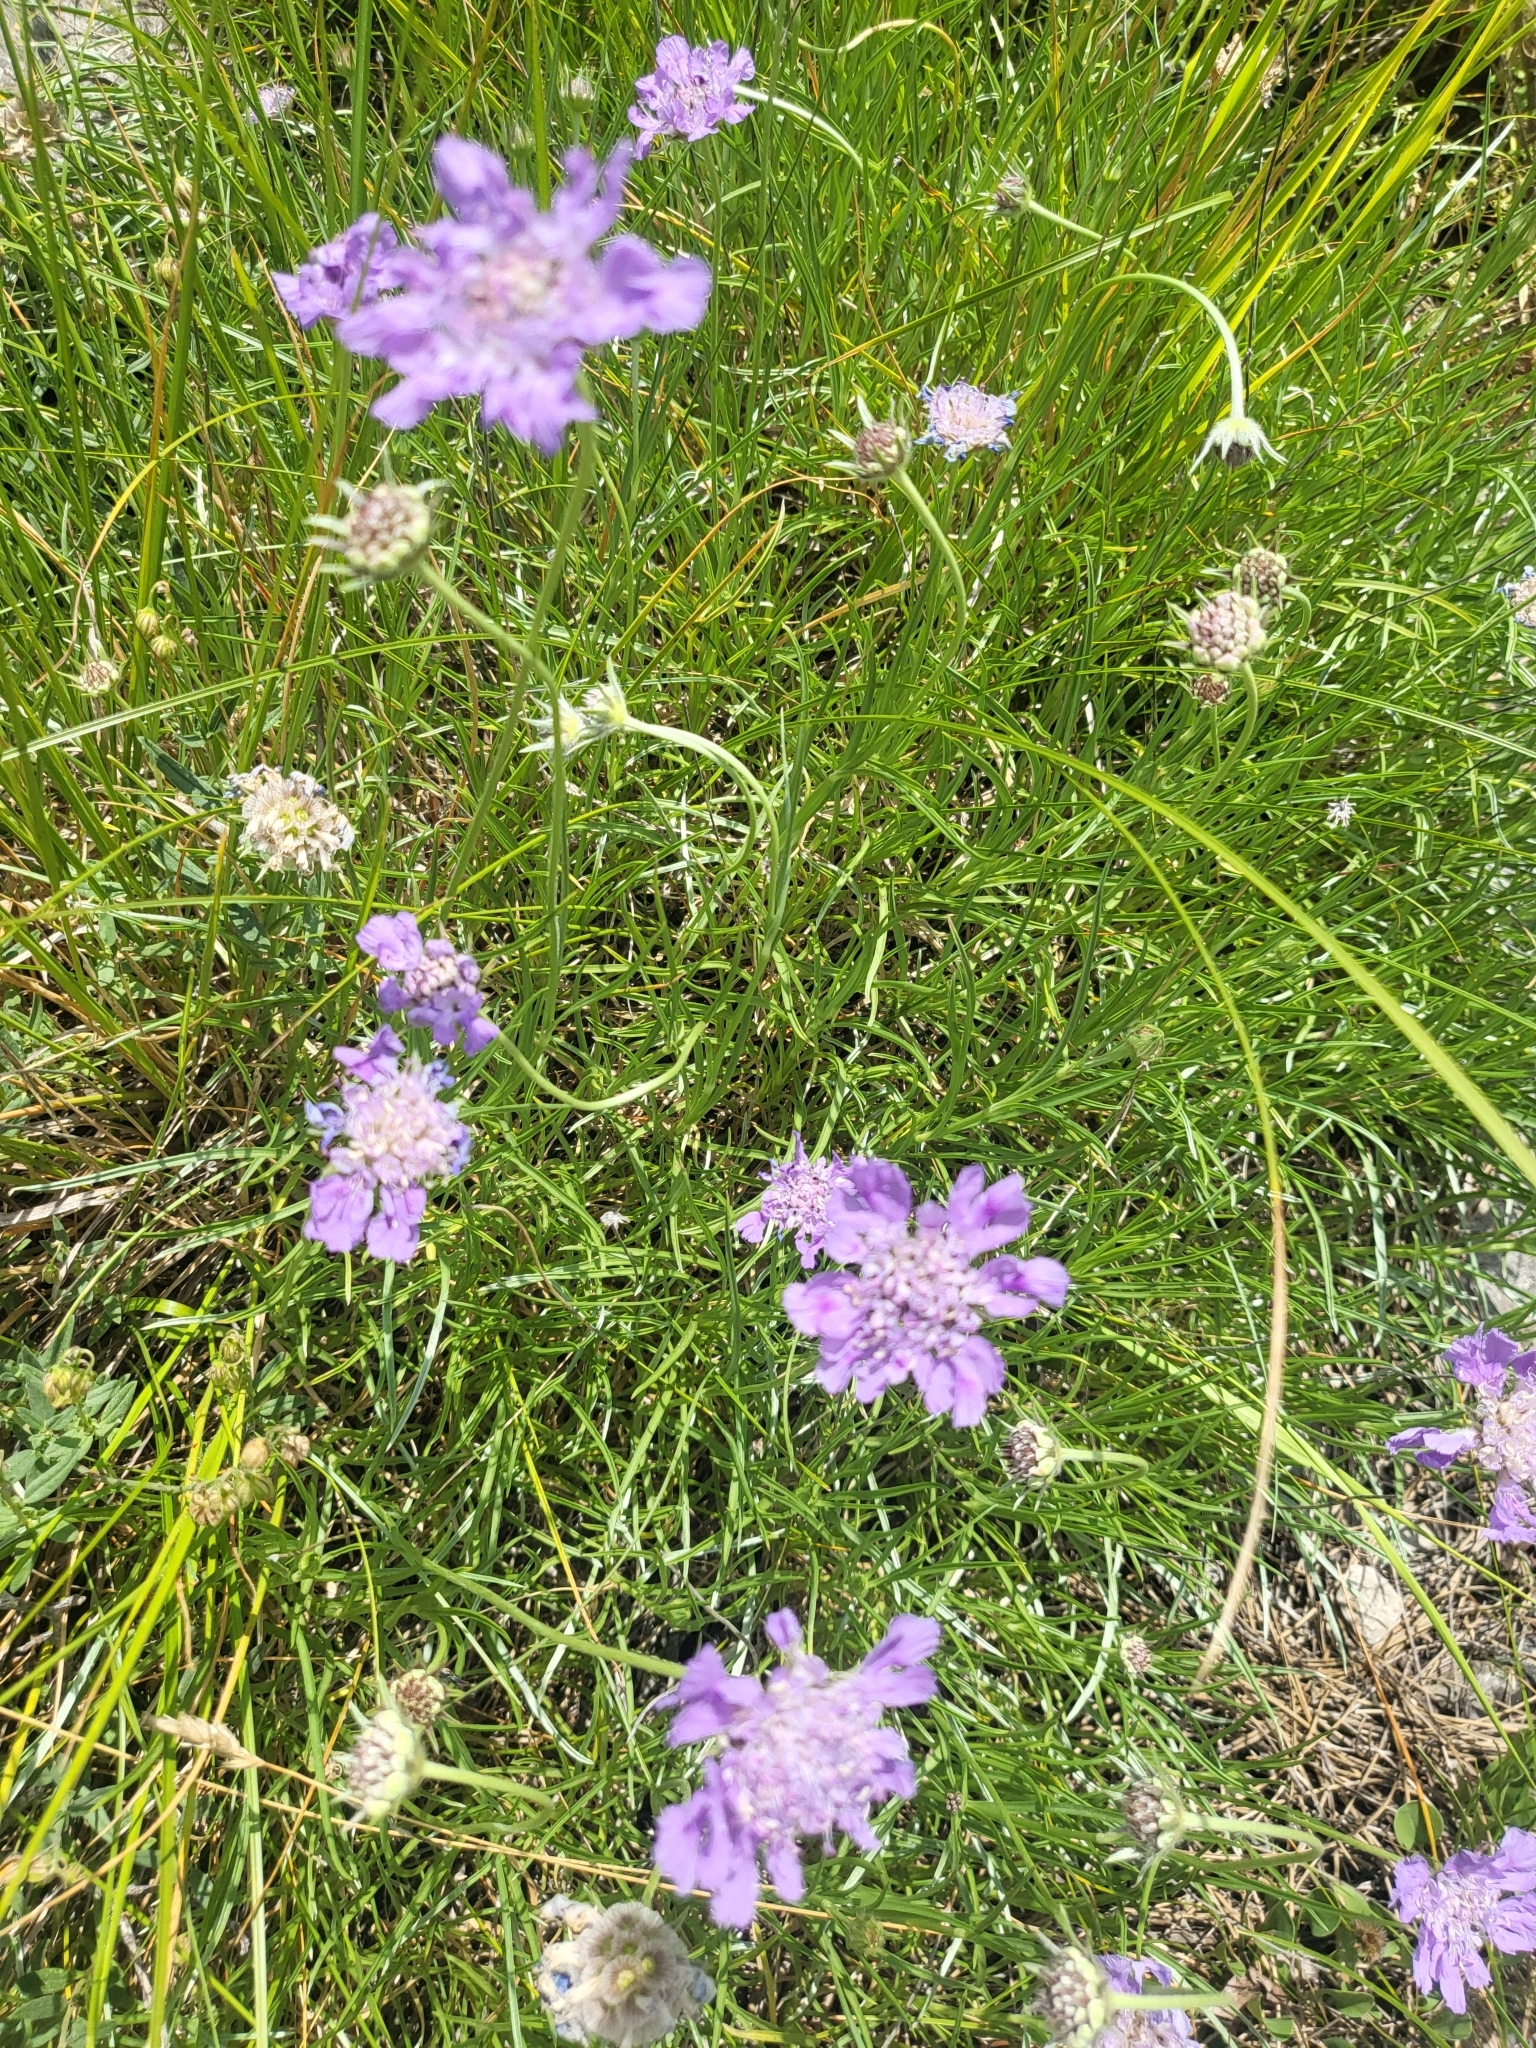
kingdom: Plantae
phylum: Tracheophyta
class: Magnoliopsida
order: Dipsacales
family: Caprifoliaceae
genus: Lomelosia
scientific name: Lomelosia graminifolia
